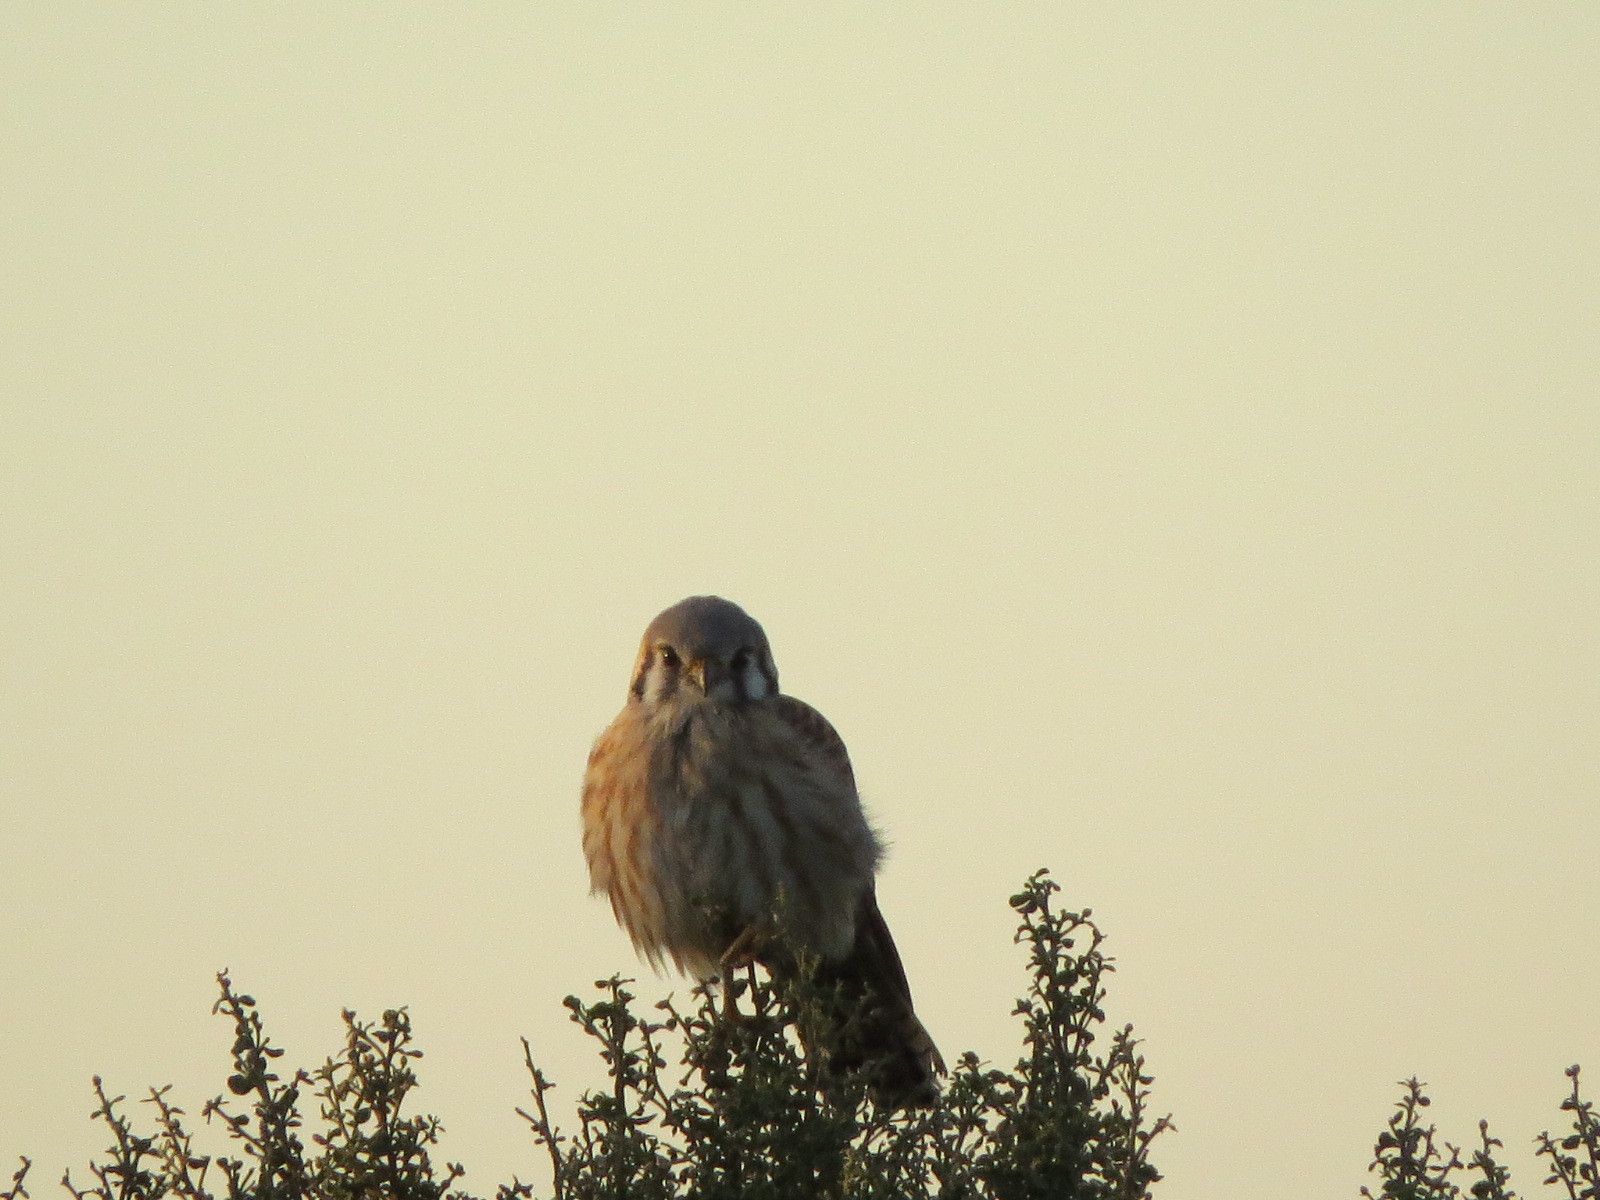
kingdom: Animalia
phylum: Chordata
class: Aves
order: Falconiformes
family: Falconidae
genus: Falco
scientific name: Falco sparverius
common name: American kestrel
